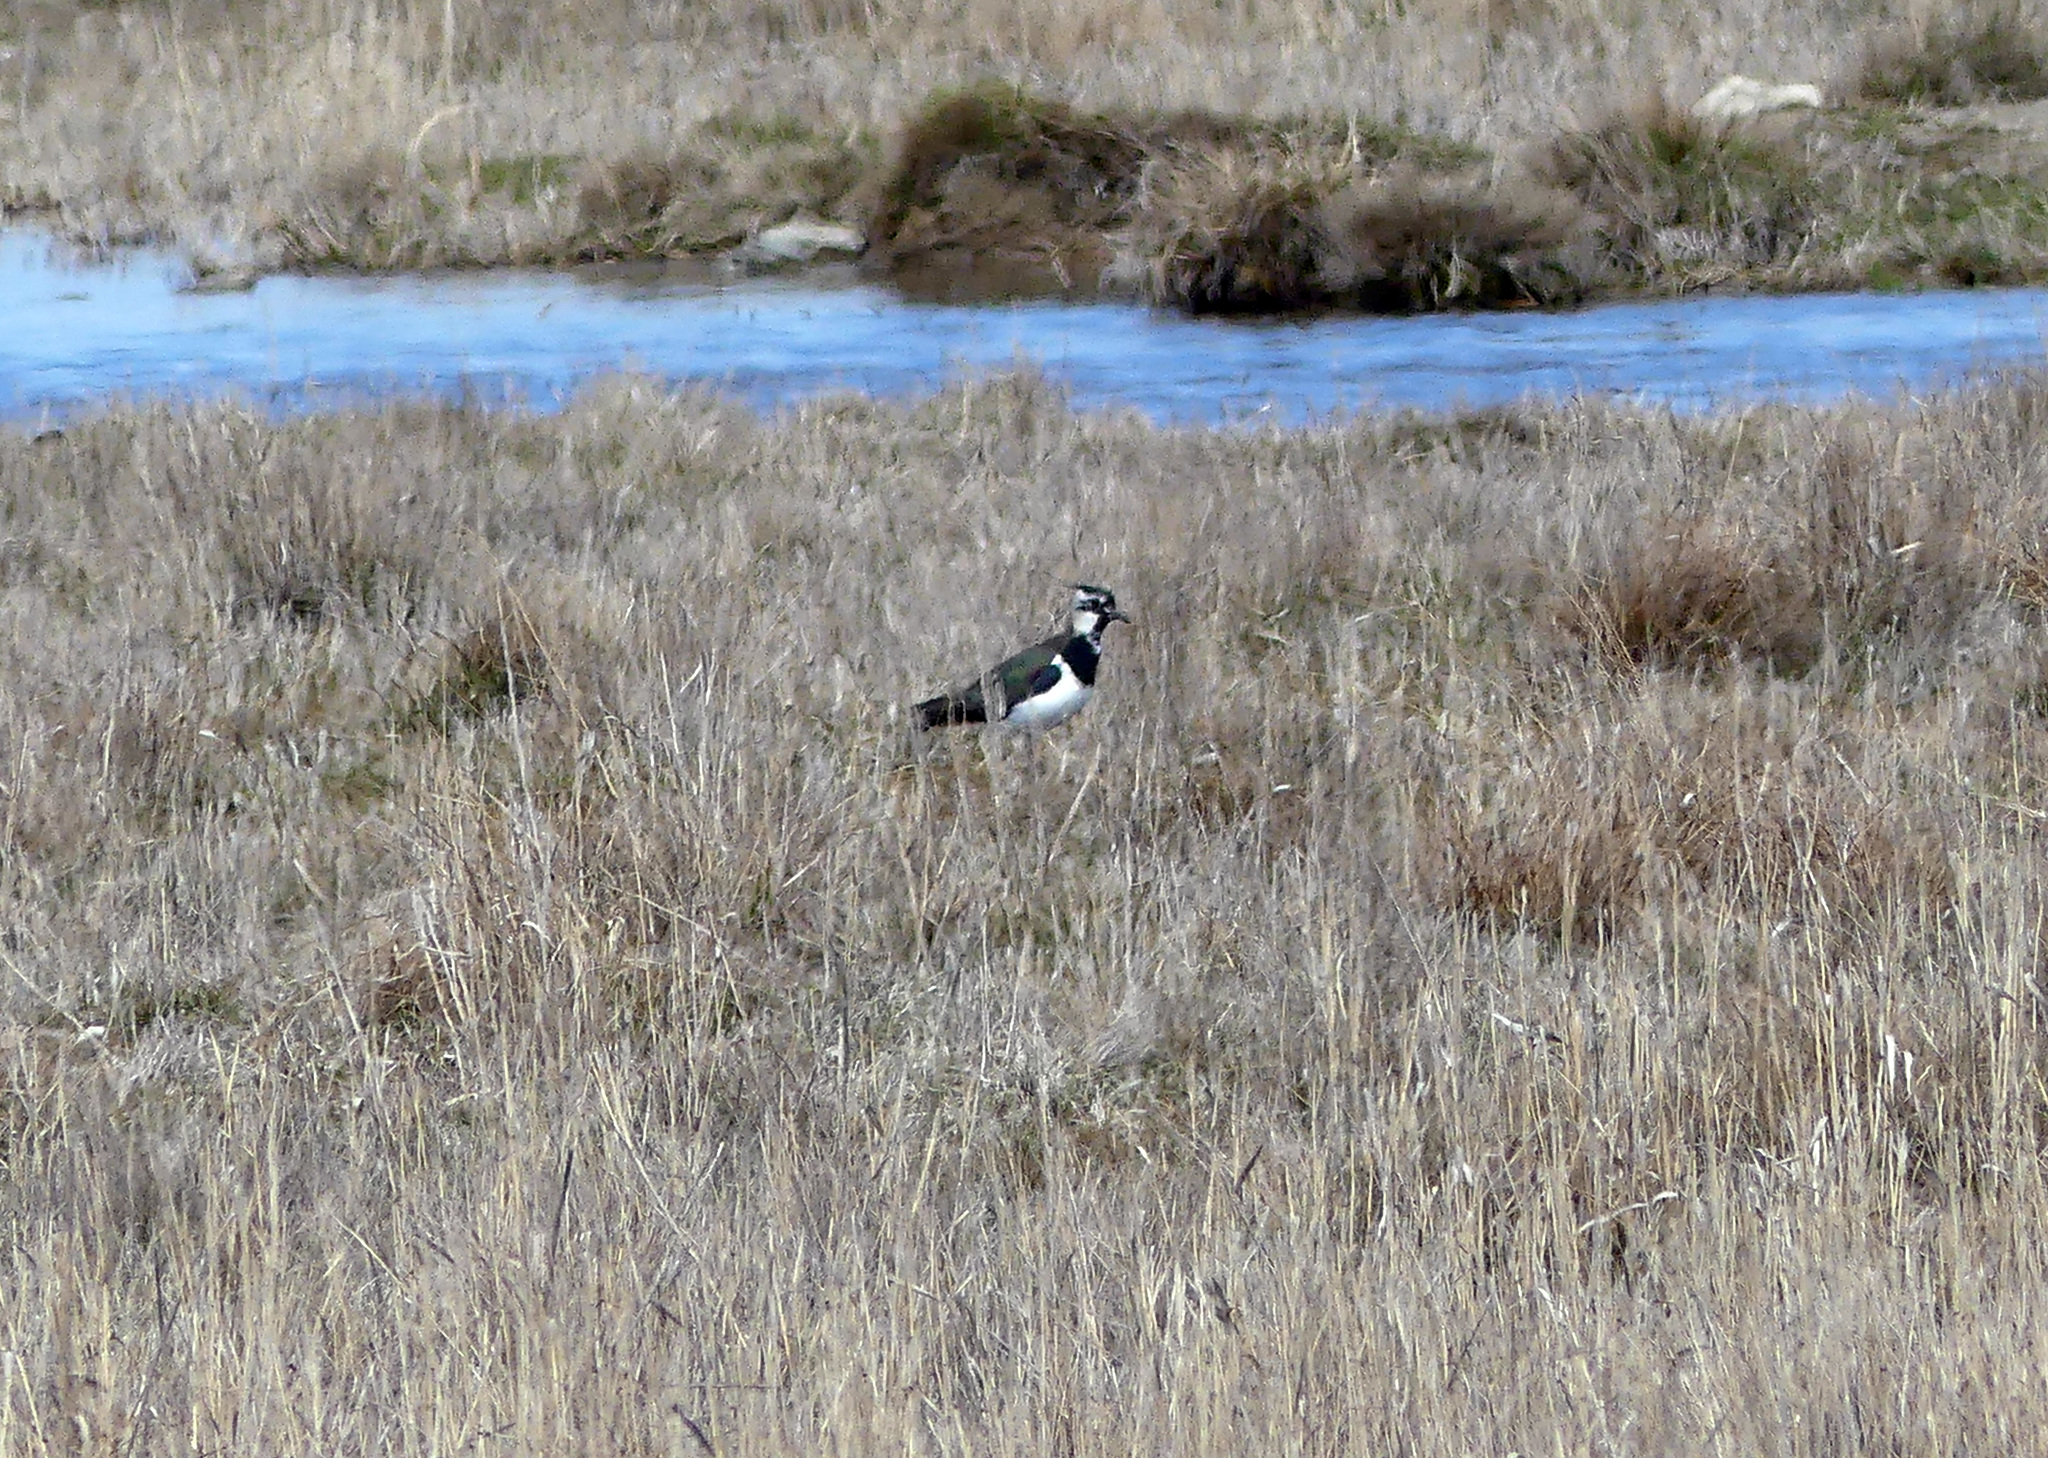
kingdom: Animalia
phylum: Chordata
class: Aves
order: Charadriiformes
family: Charadriidae
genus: Vanellus
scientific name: Vanellus vanellus
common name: Northern lapwing
